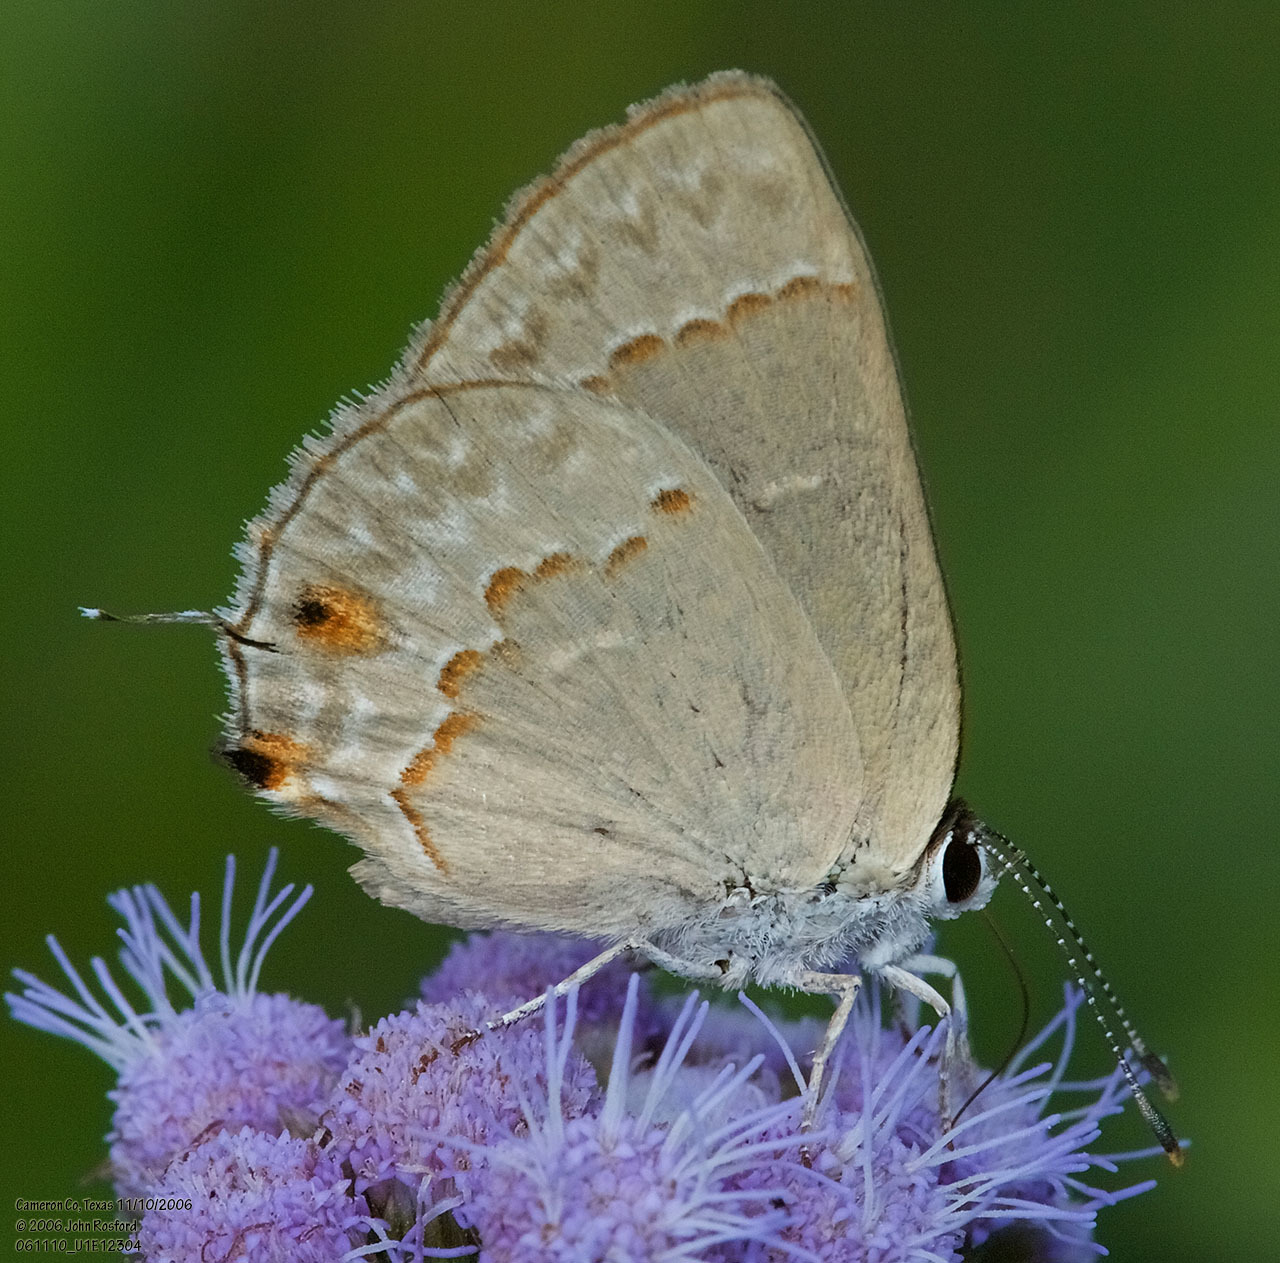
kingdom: Animalia
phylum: Arthropoda
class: Insecta
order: Lepidoptera
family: Lycaenidae
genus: Thecla
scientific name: Thecla rufofusca
